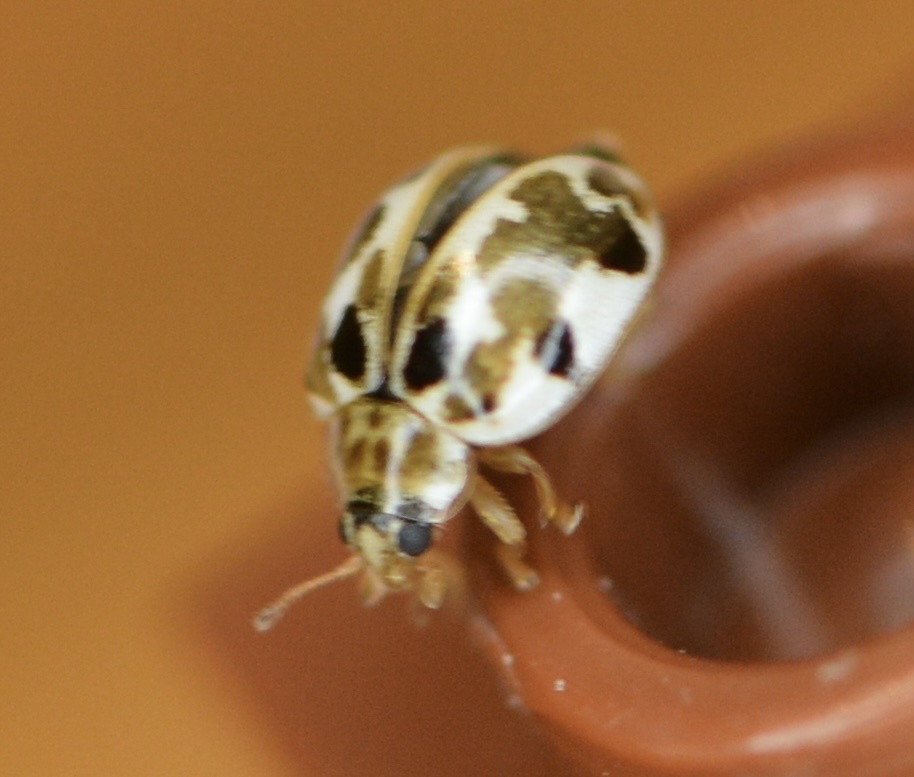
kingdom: Animalia
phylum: Arthropoda
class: Insecta
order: Coleoptera
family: Coccinellidae
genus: Psyllobora
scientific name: Psyllobora vigintimaculata
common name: Ladybird beetle
